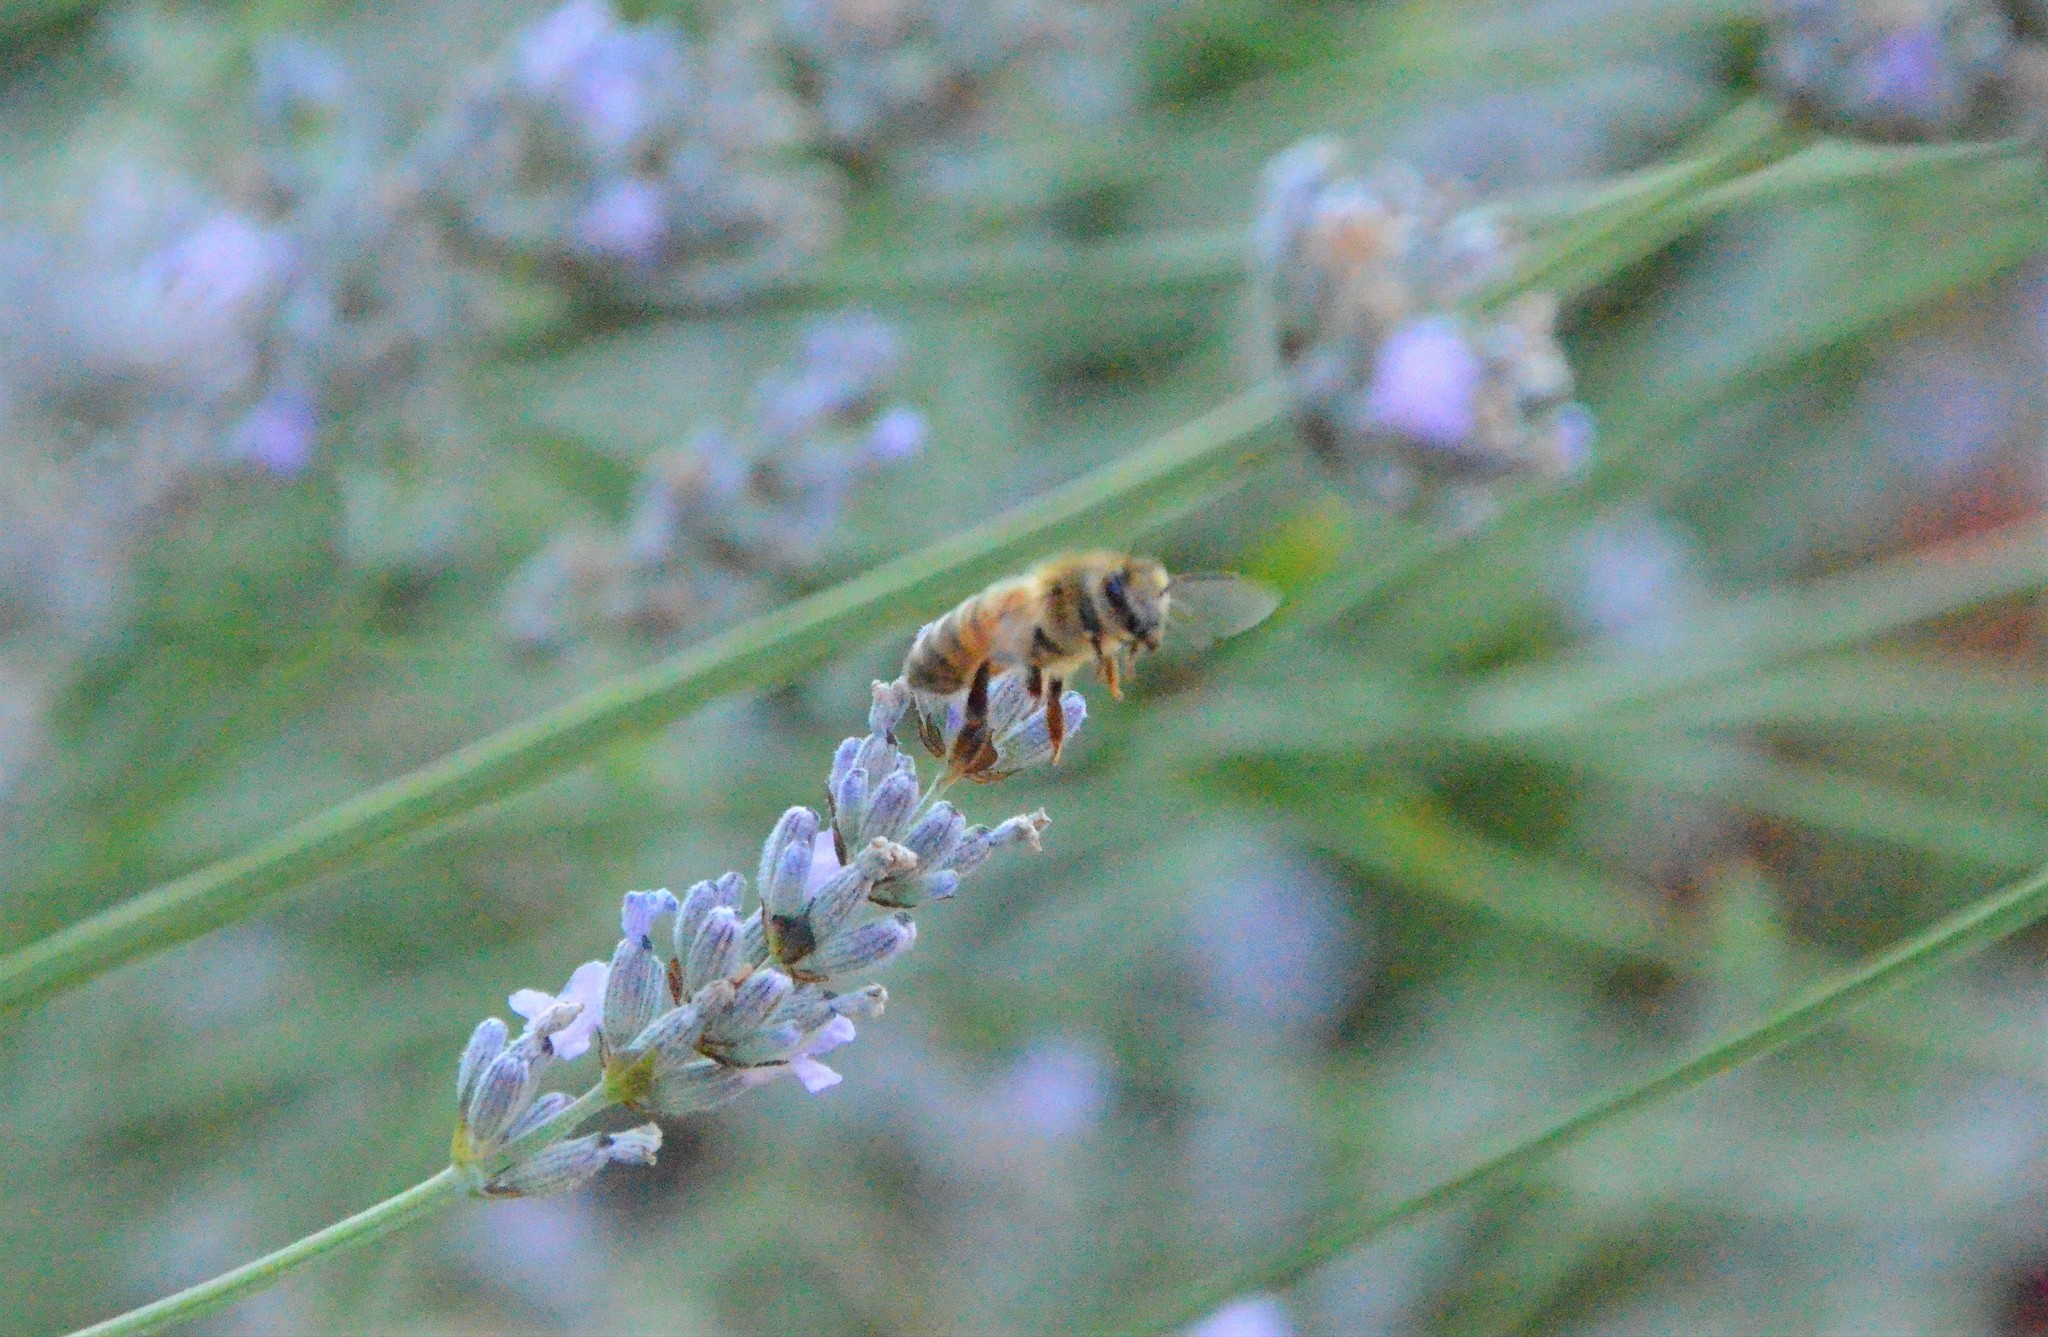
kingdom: Animalia
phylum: Arthropoda
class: Insecta
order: Hymenoptera
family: Apidae
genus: Apis
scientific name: Apis mellifera
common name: Honey bee
